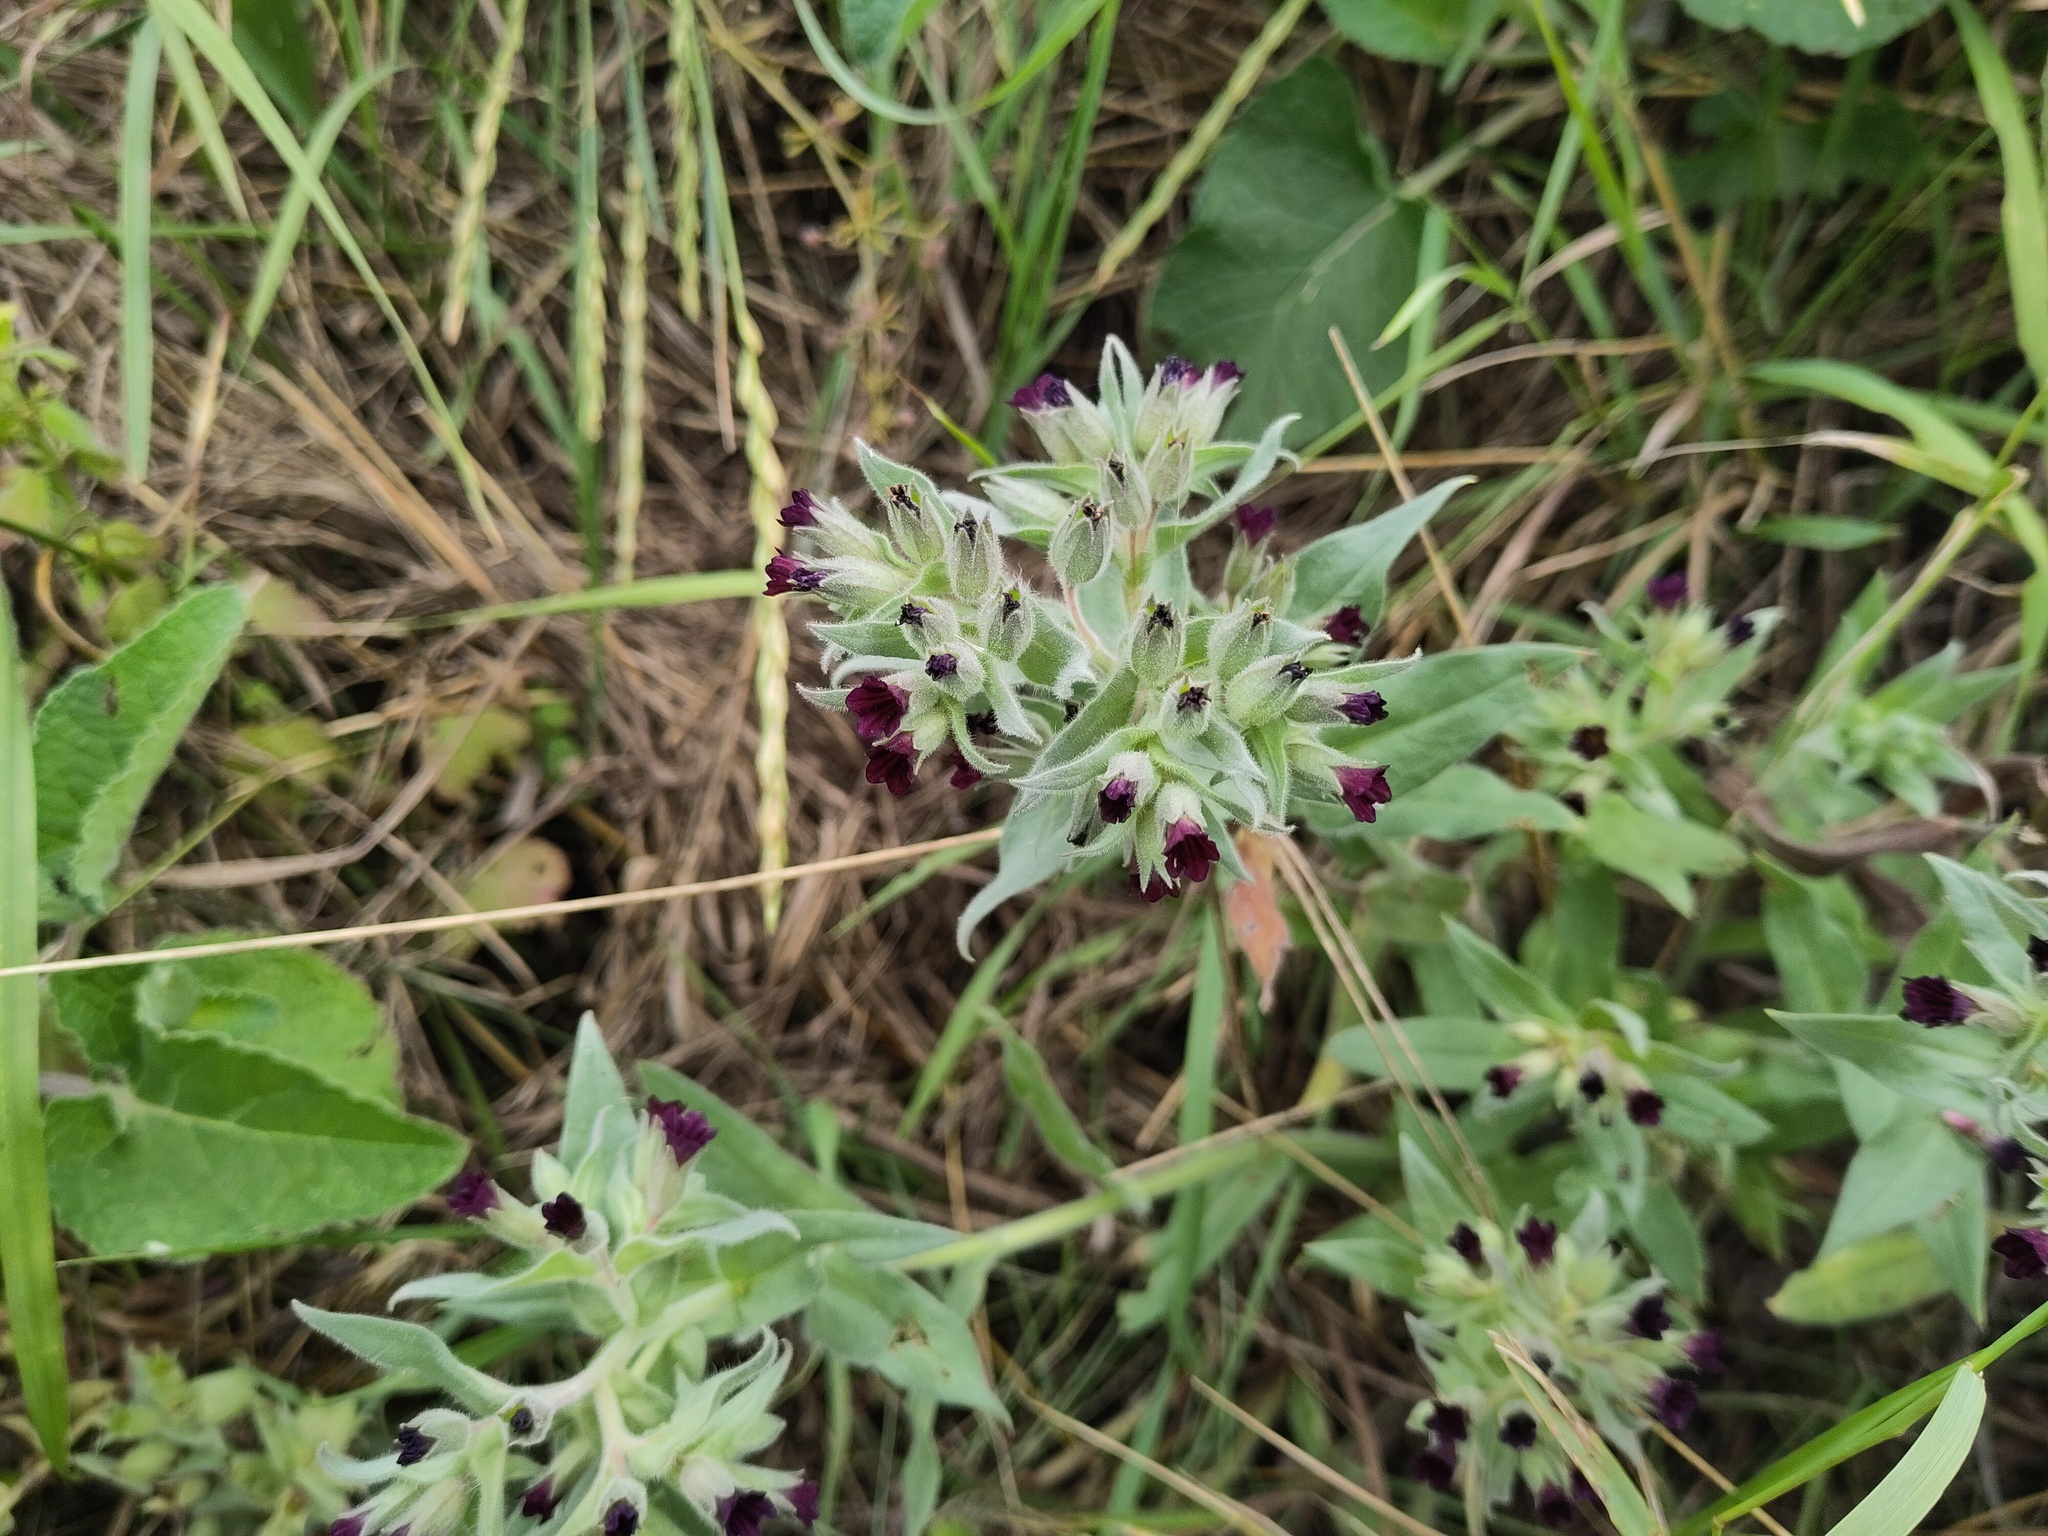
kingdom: Plantae
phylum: Tracheophyta
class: Magnoliopsida
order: Boraginales
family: Boraginaceae
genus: Nonea
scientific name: Nonea pulla
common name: Brown nonea
